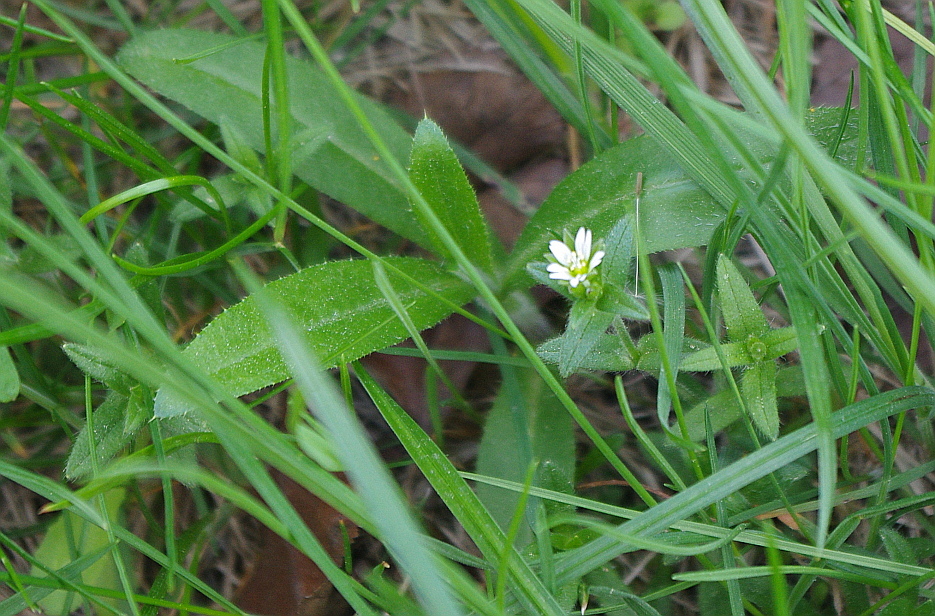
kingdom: Plantae
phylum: Tracheophyta
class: Magnoliopsida
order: Asterales
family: Asteraceae
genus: Cirsium
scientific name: Cirsium arvense
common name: Creeping thistle
